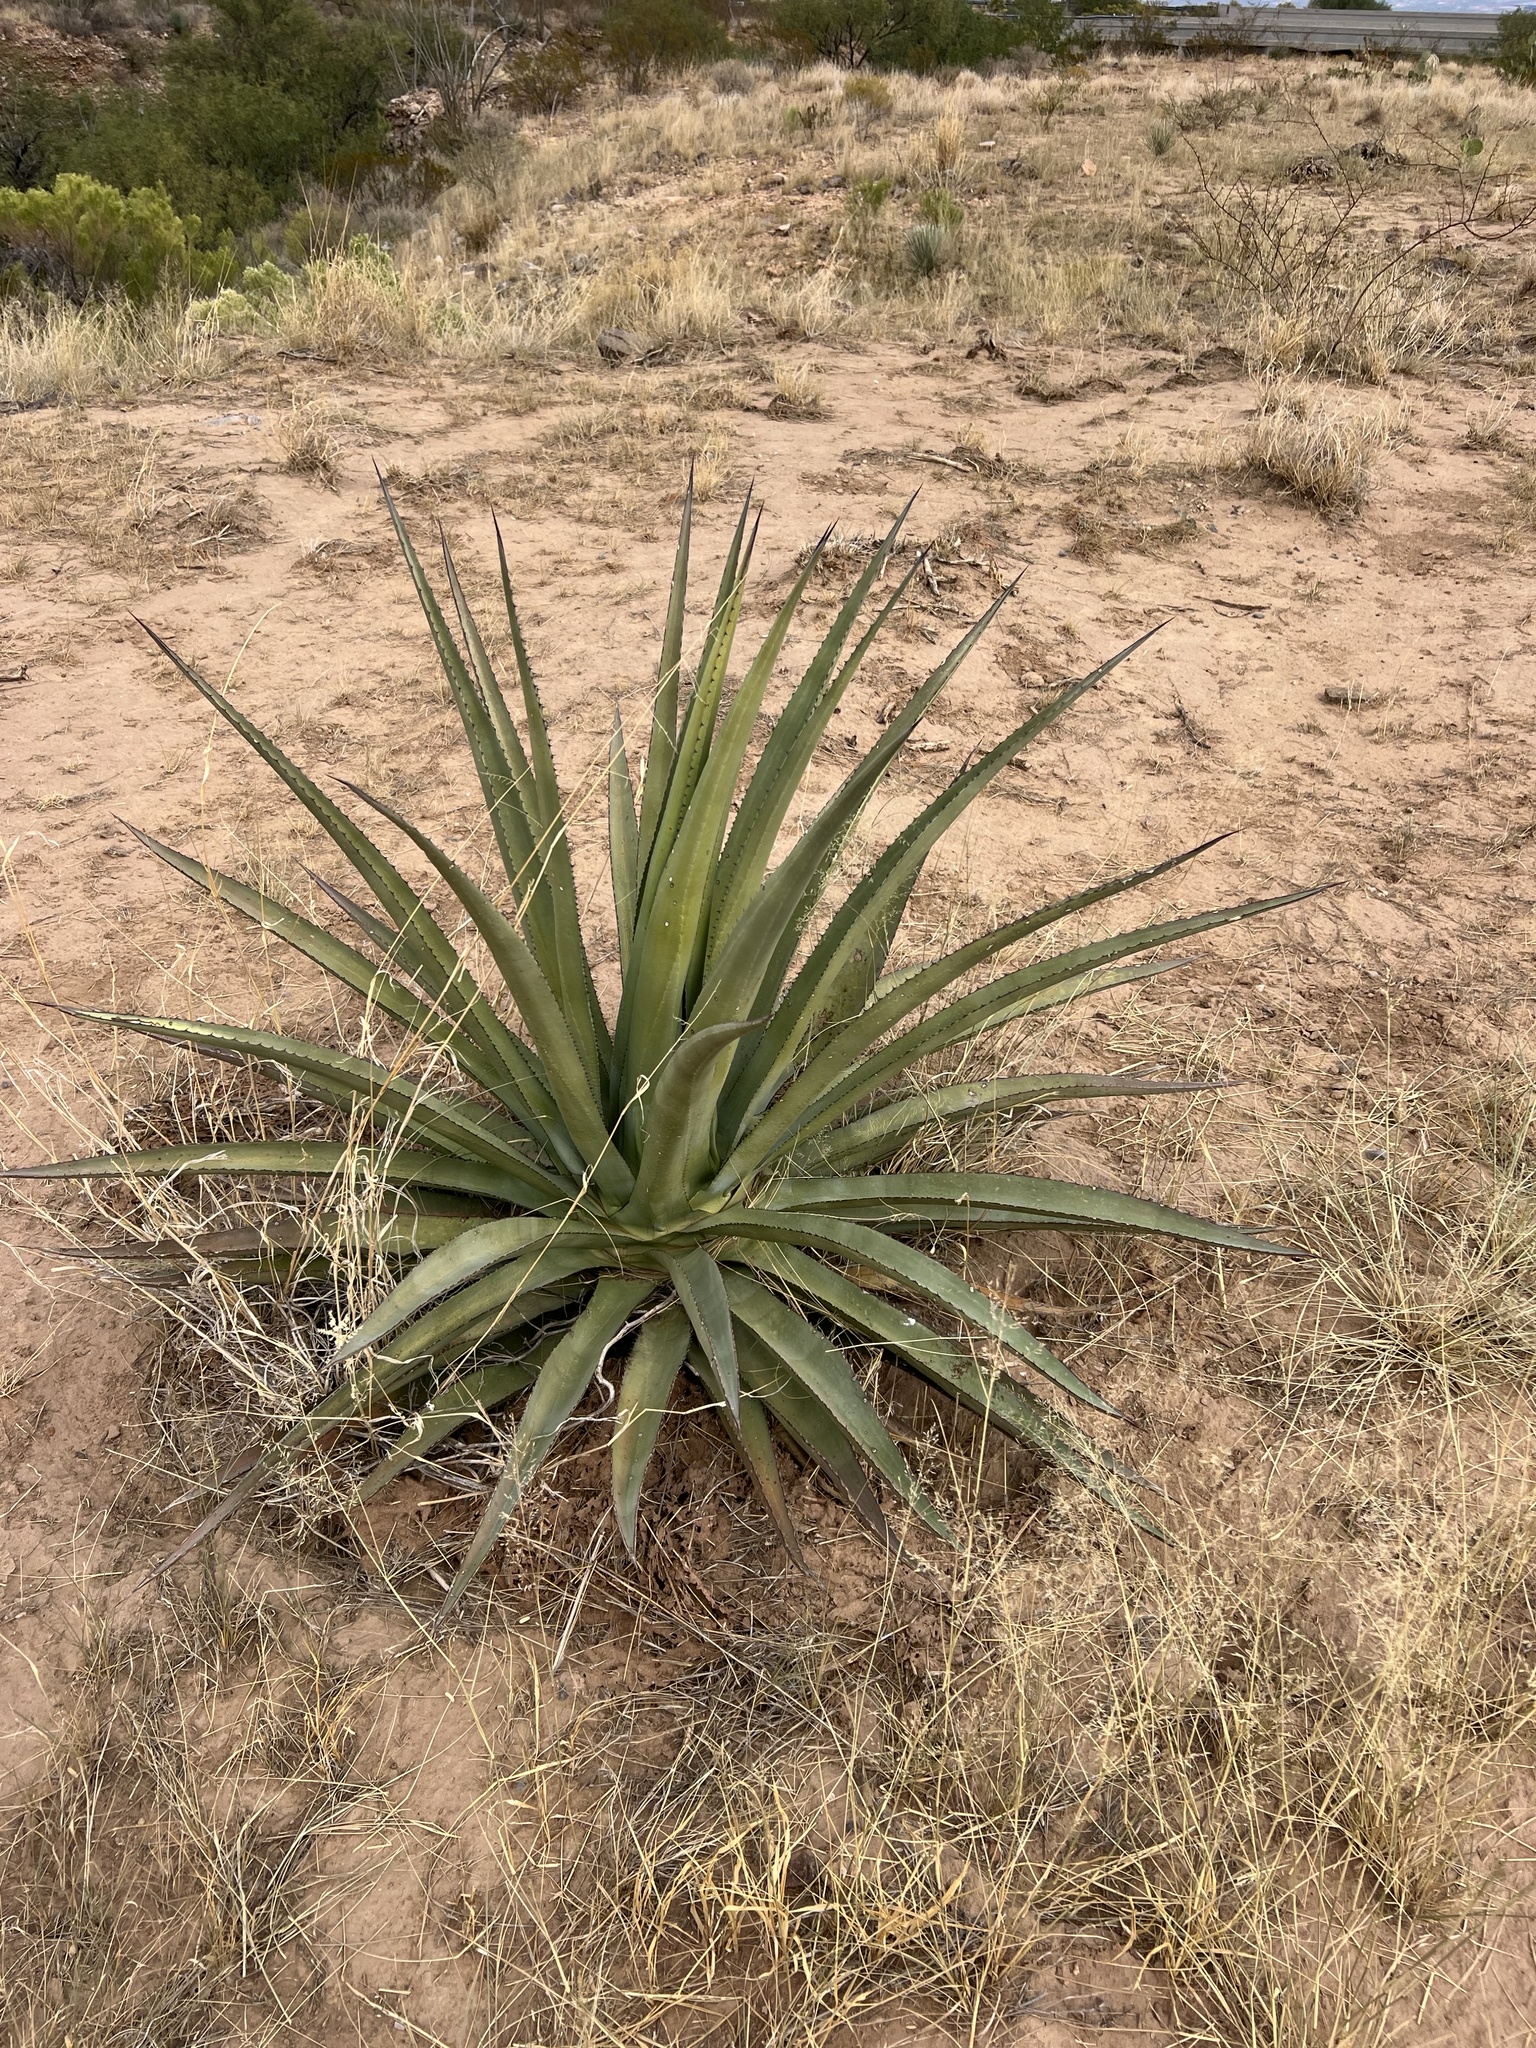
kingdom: Plantae
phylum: Tracheophyta
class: Liliopsida
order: Asparagales
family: Asparagaceae
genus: Agave
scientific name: Agave palmeri
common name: Palmer agave
